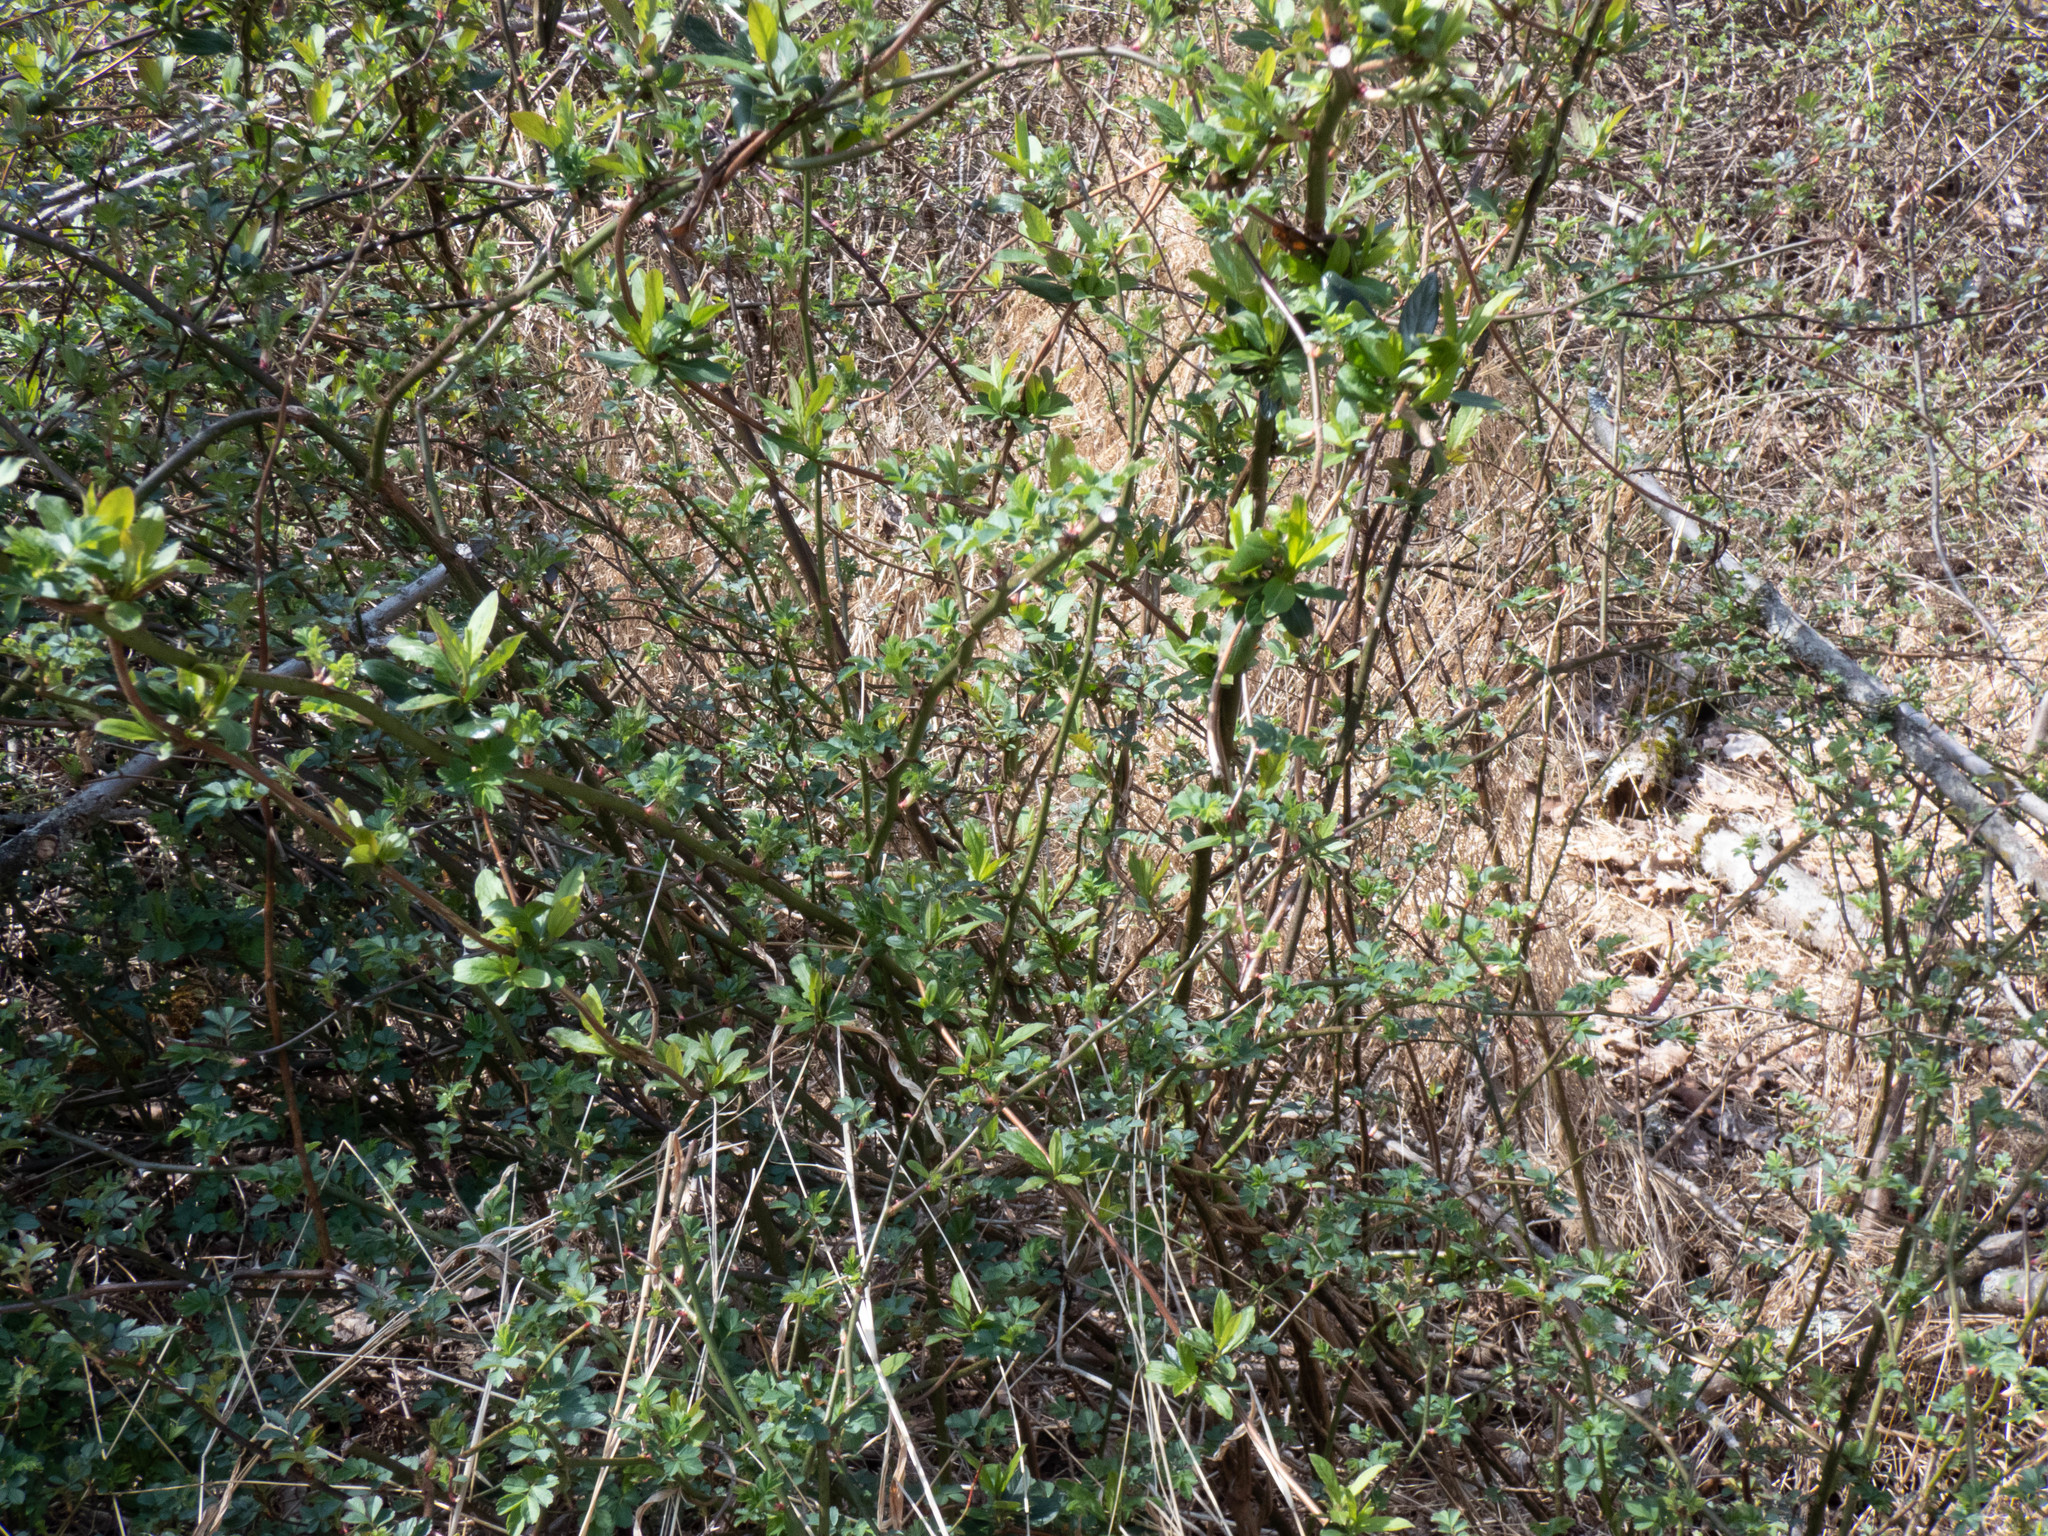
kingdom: Plantae
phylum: Tracheophyta
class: Magnoliopsida
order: Rosales
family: Rosaceae
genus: Rosa
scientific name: Rosa multiflora
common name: Multiflora rose
